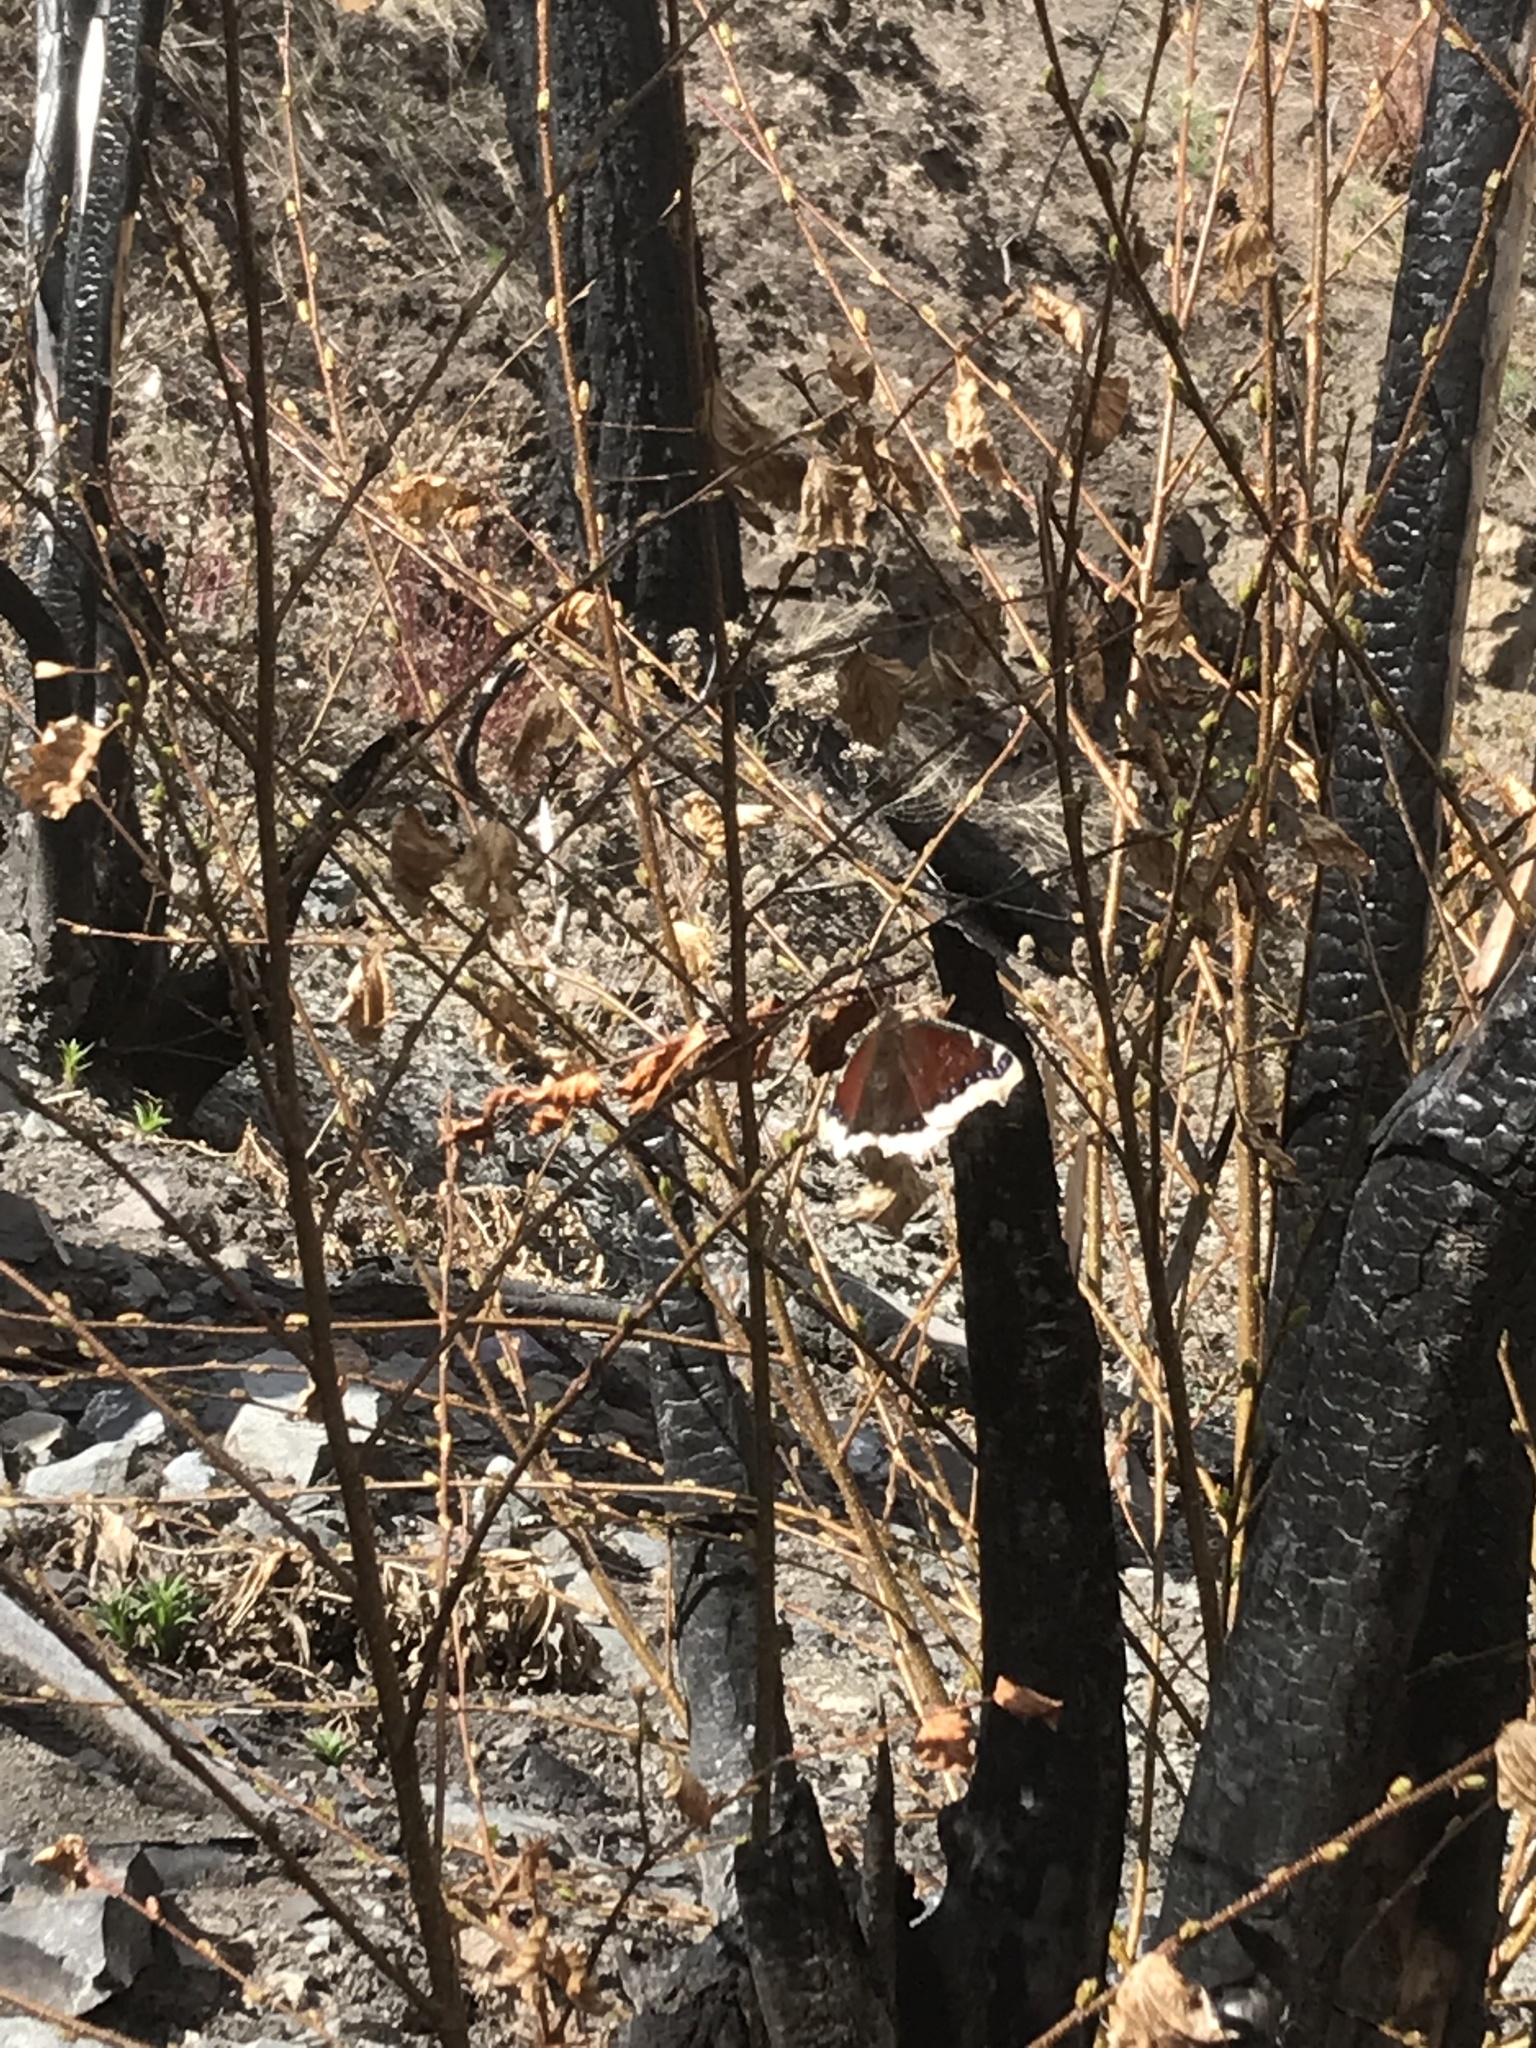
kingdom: Animalia
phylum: Arthropoda
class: Insecta
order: Lepidoptera
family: Nymphalidae
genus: Nymphalis
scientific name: Nymphalis antiopa
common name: Camberwell beauty
